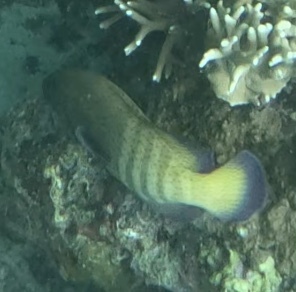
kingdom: Animalia
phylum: Chordata
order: Perciformes
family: Serranidae
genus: Cephalopholis
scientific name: Cephalopholis argus
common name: Peacock grouper
